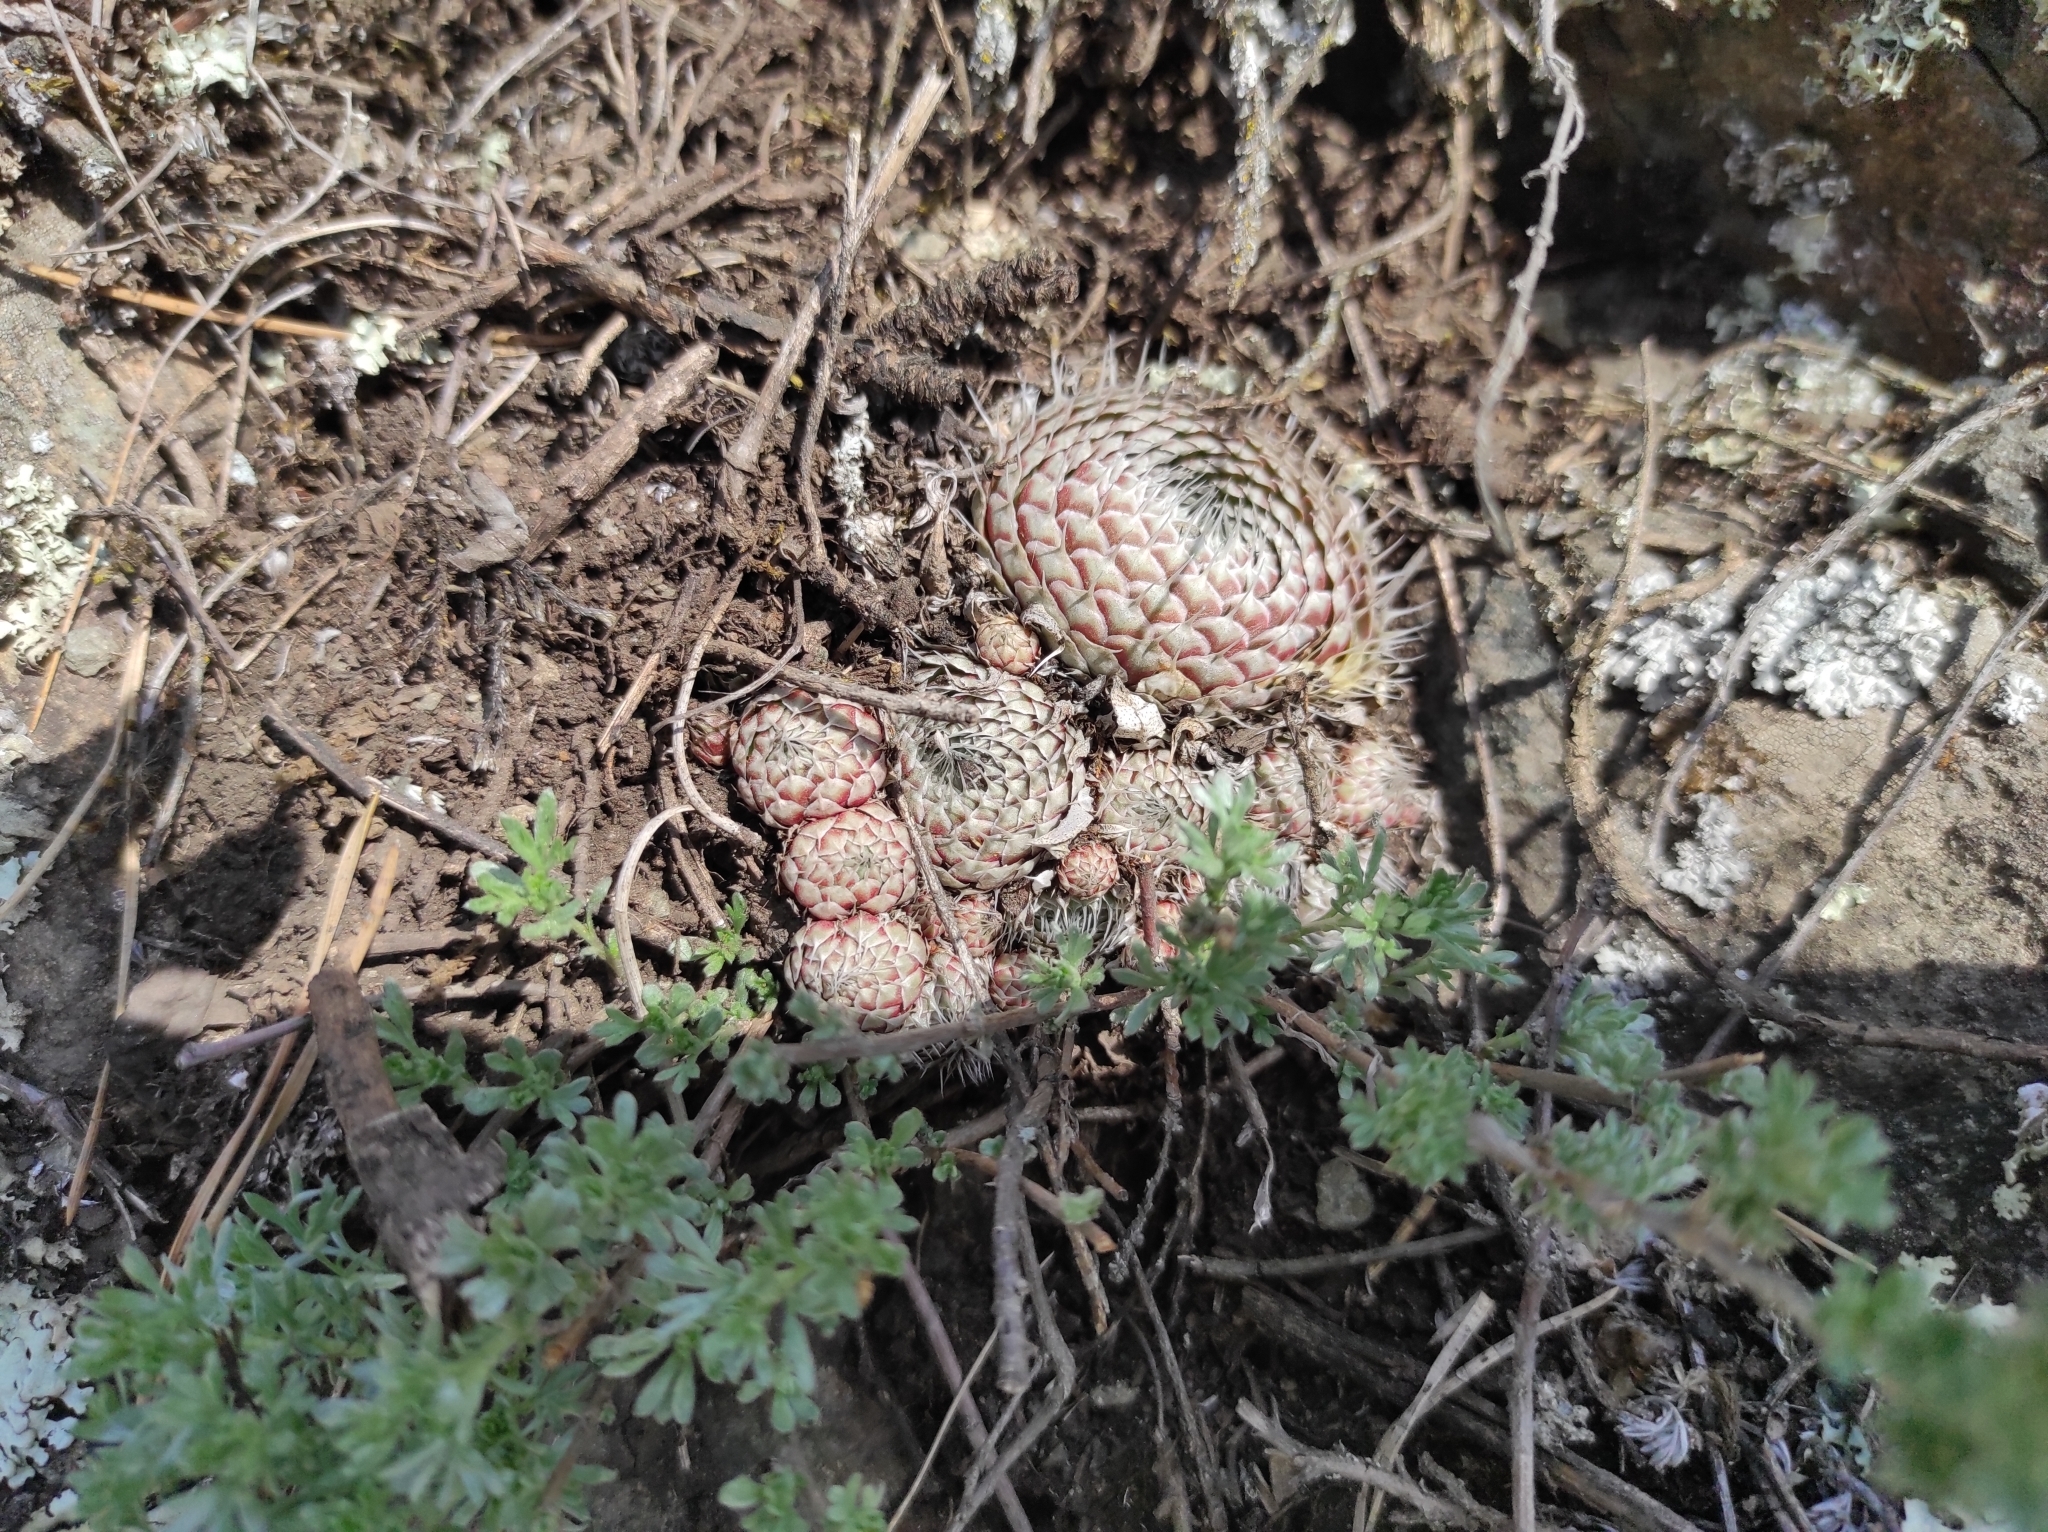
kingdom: Plantae
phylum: Tracheophyta
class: Magnoliopsida
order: Saxifragales
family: Crassulaceae
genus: Orostachys
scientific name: Orostachys spinosa
